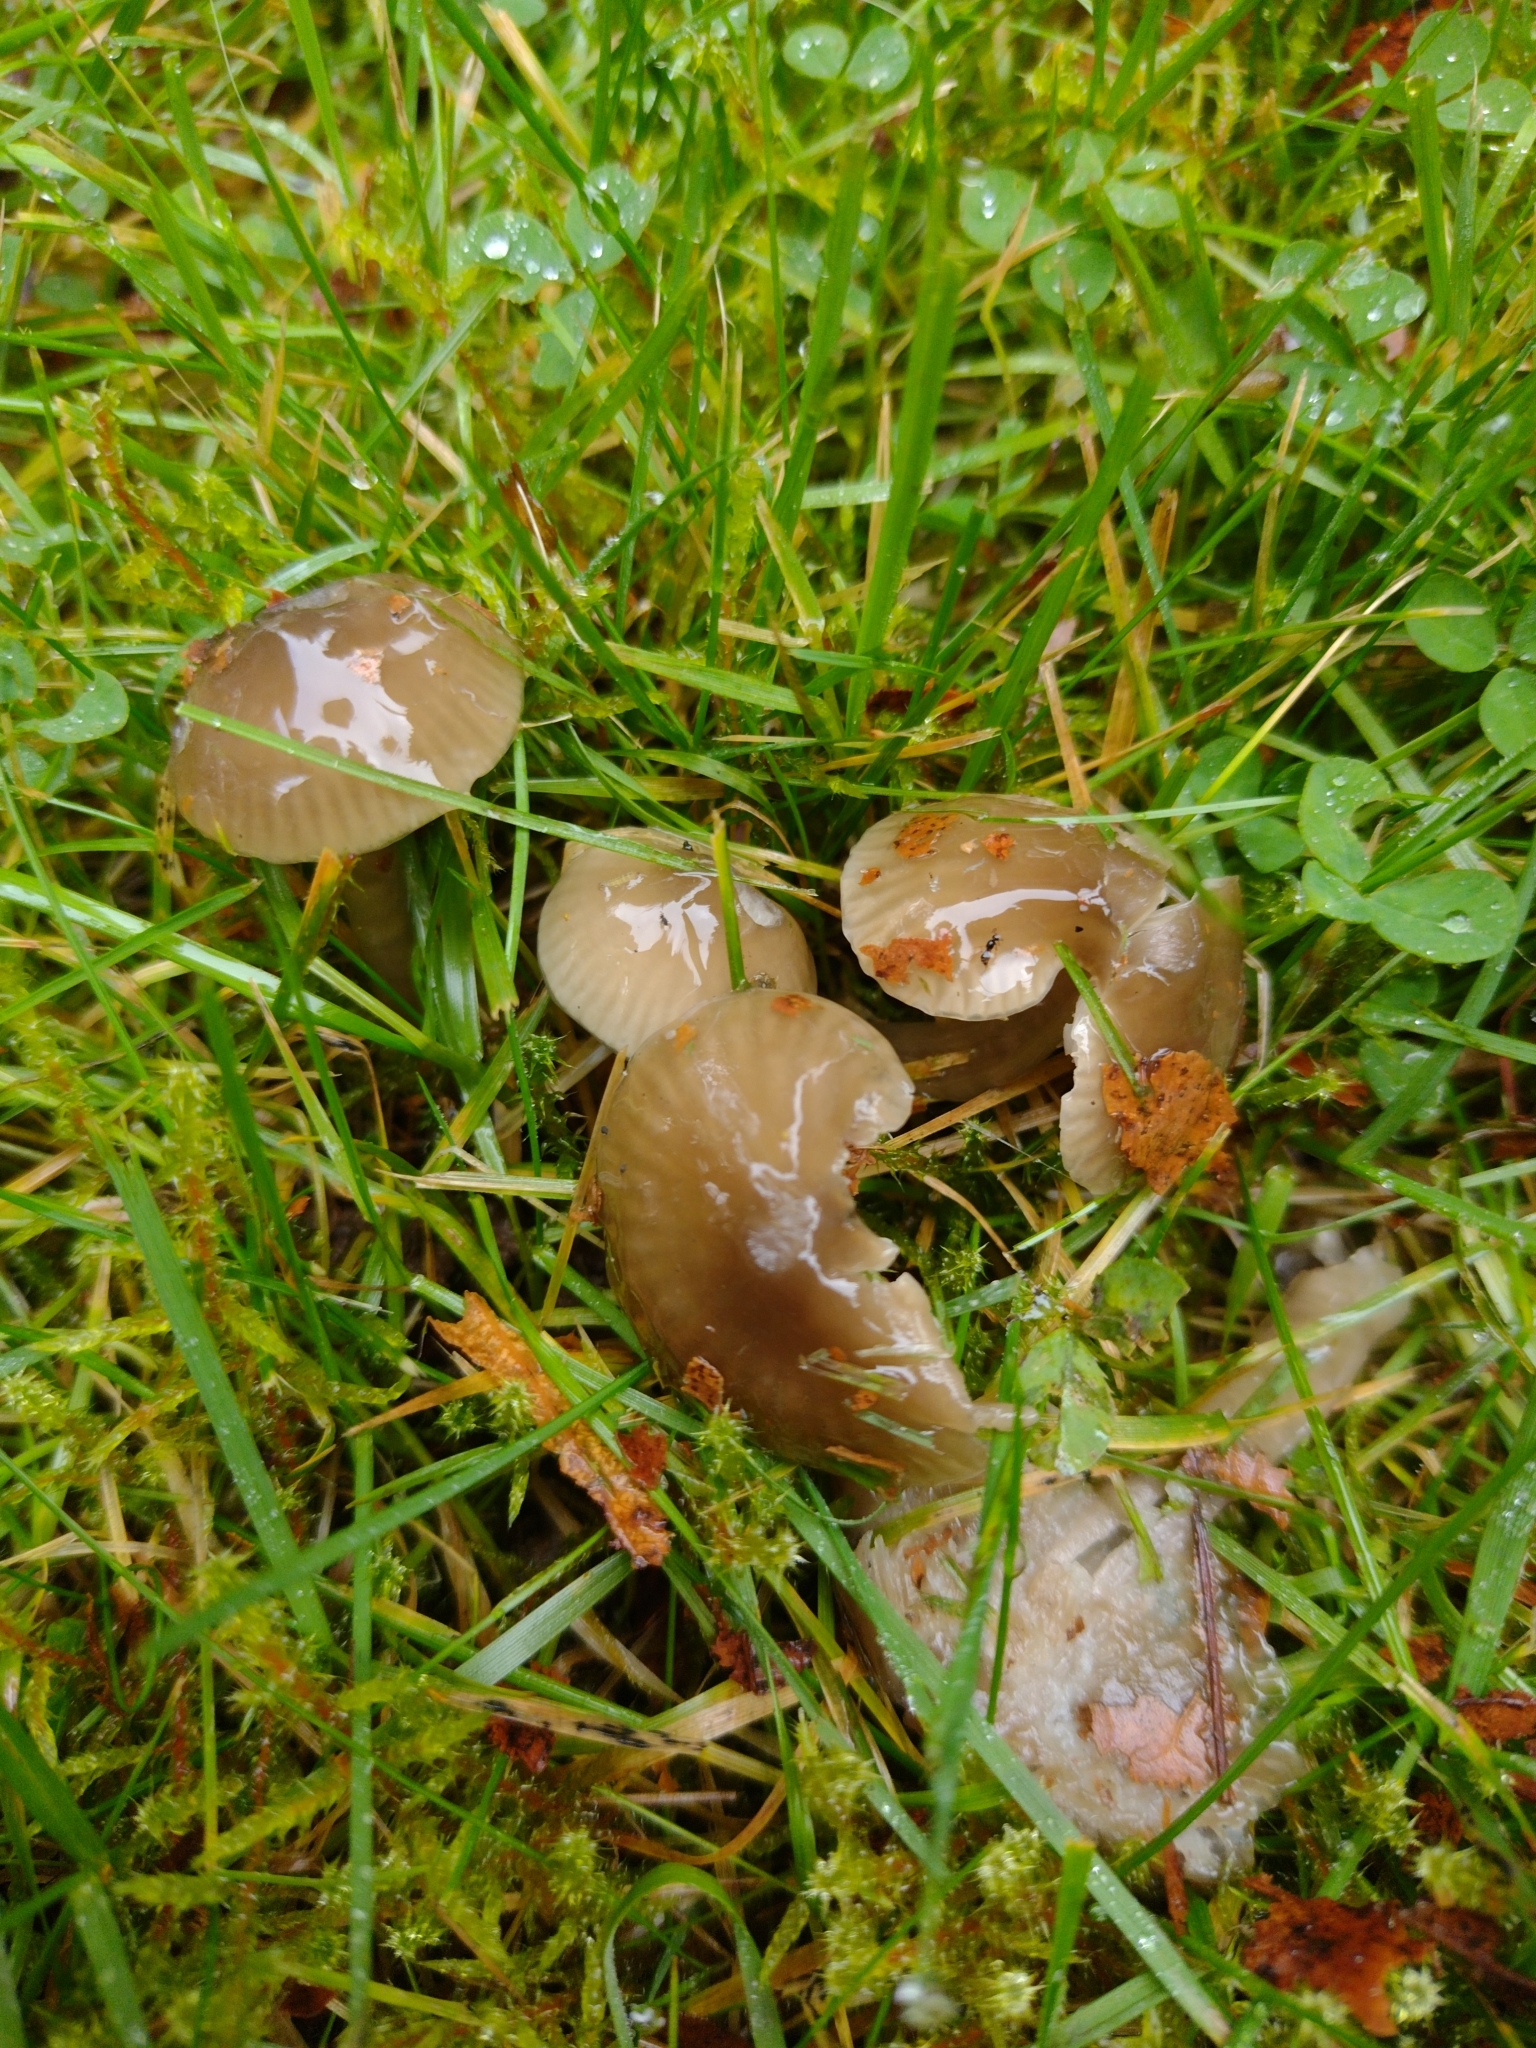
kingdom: Fungi
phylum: Basidiomycota
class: Agaricomycetes
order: Agaricales
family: Hygrophoraceae
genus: Gliophorus
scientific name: Gliophorus irrigatus
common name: Slimy waxcap
